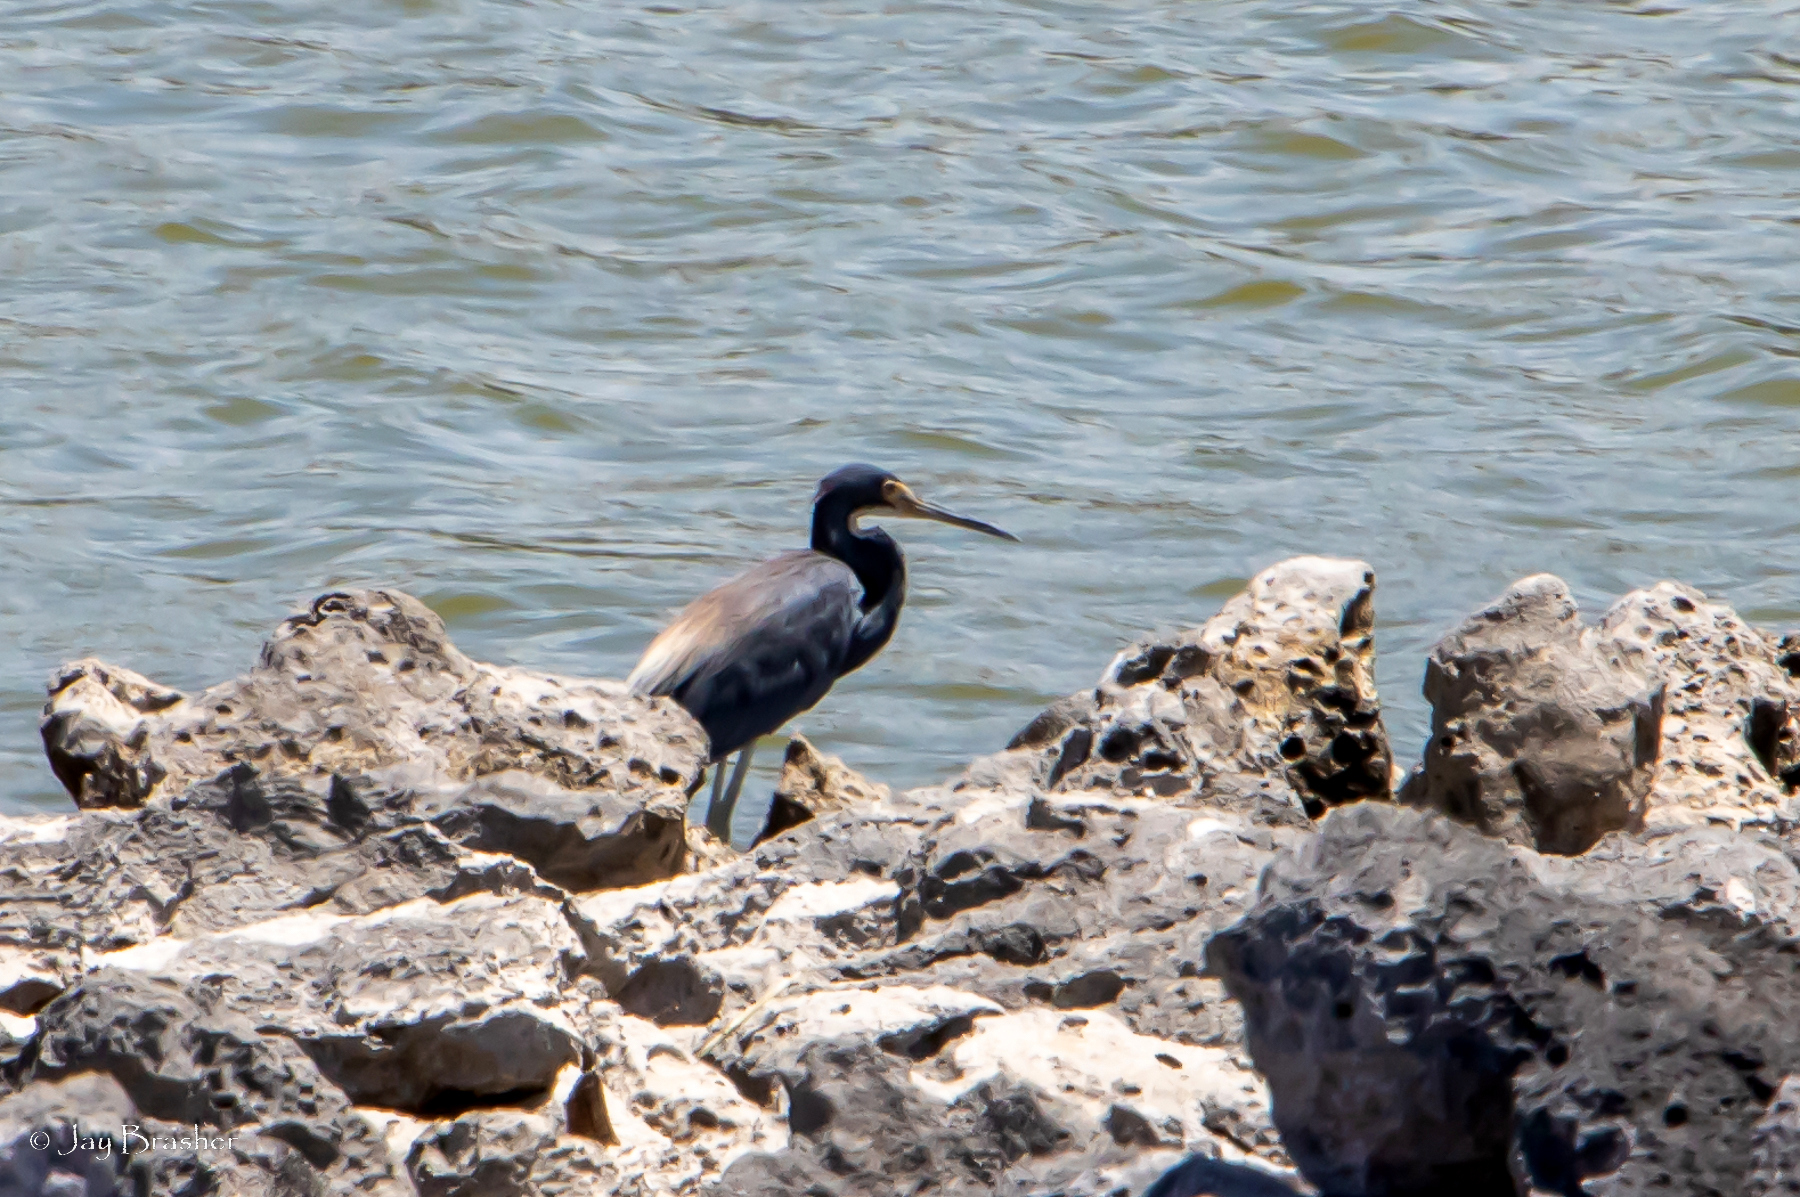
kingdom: Animalia
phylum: Chordata
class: Aves
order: Pelecaniformes
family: Ardeidae
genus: Egretta
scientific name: Egretta tricolor
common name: Tricolored heron
